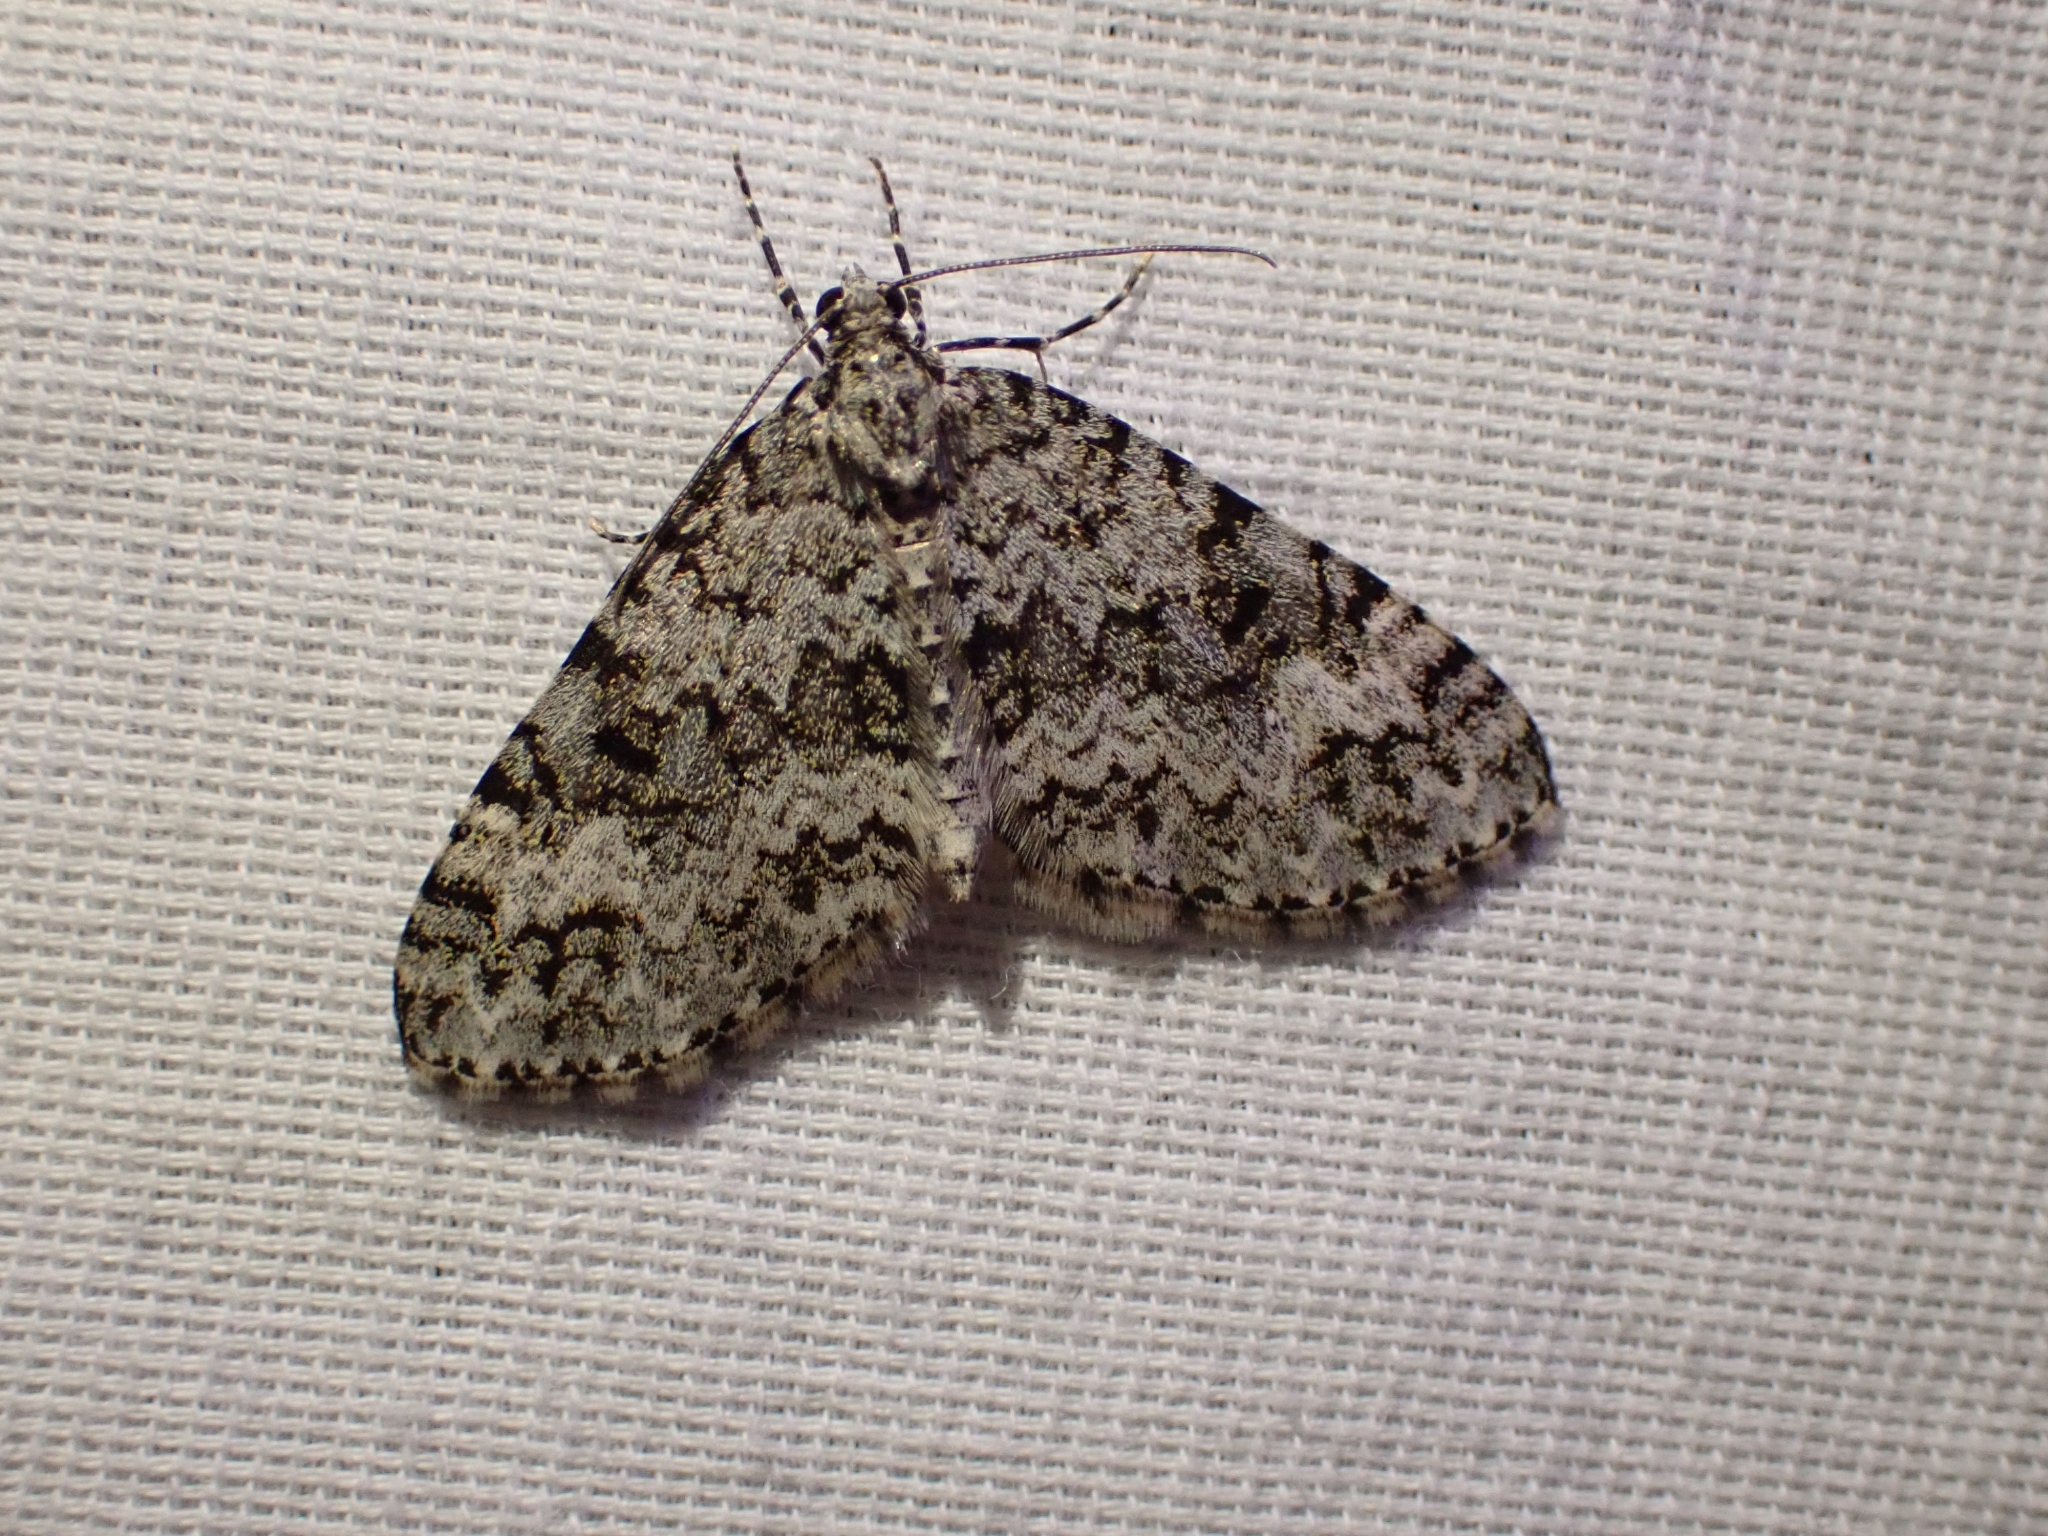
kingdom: Animalia
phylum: Arthropoda
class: Insecta
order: Lepidoptera
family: Geometridae
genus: Spargania
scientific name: Spargania magnoliata
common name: Double-banded carpet
